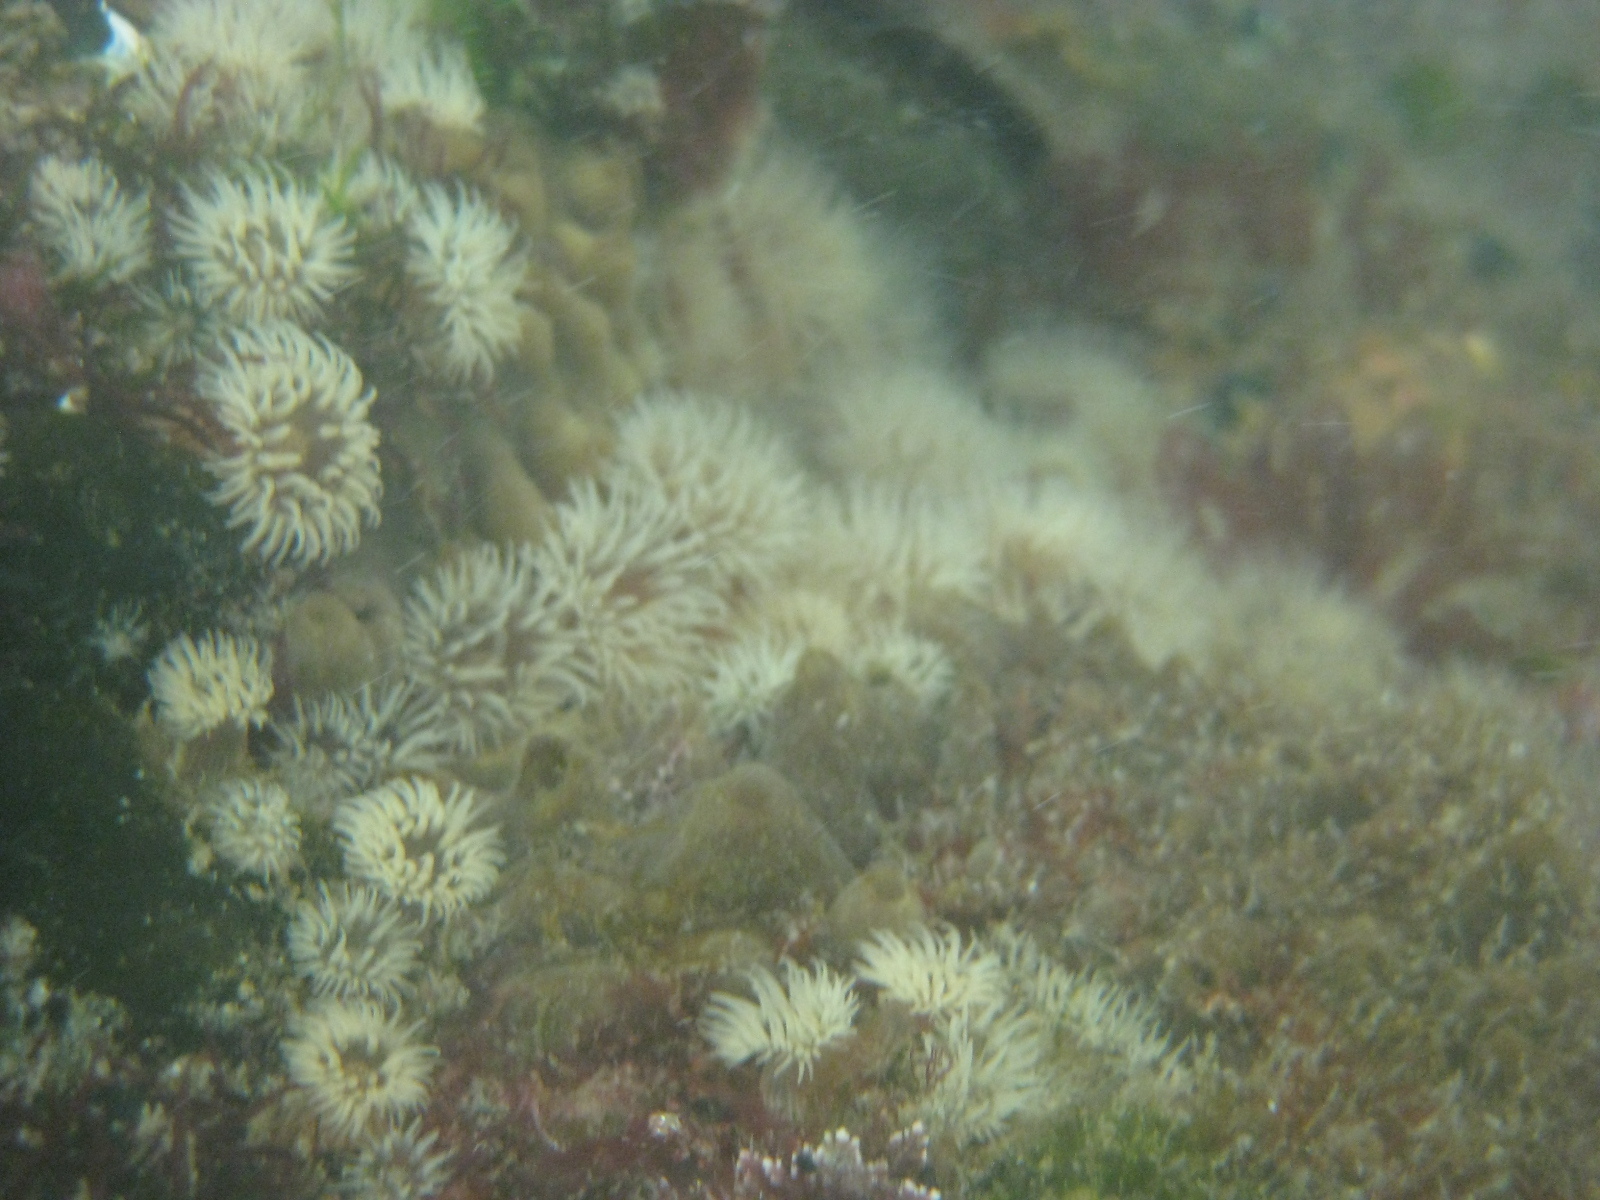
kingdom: Animalia
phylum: Cnidaria
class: Anthozoa
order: Actiniaria
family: Sagartiidae
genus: Anthothoe
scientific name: Anthothoe albocincta
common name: Orange striped anemone
